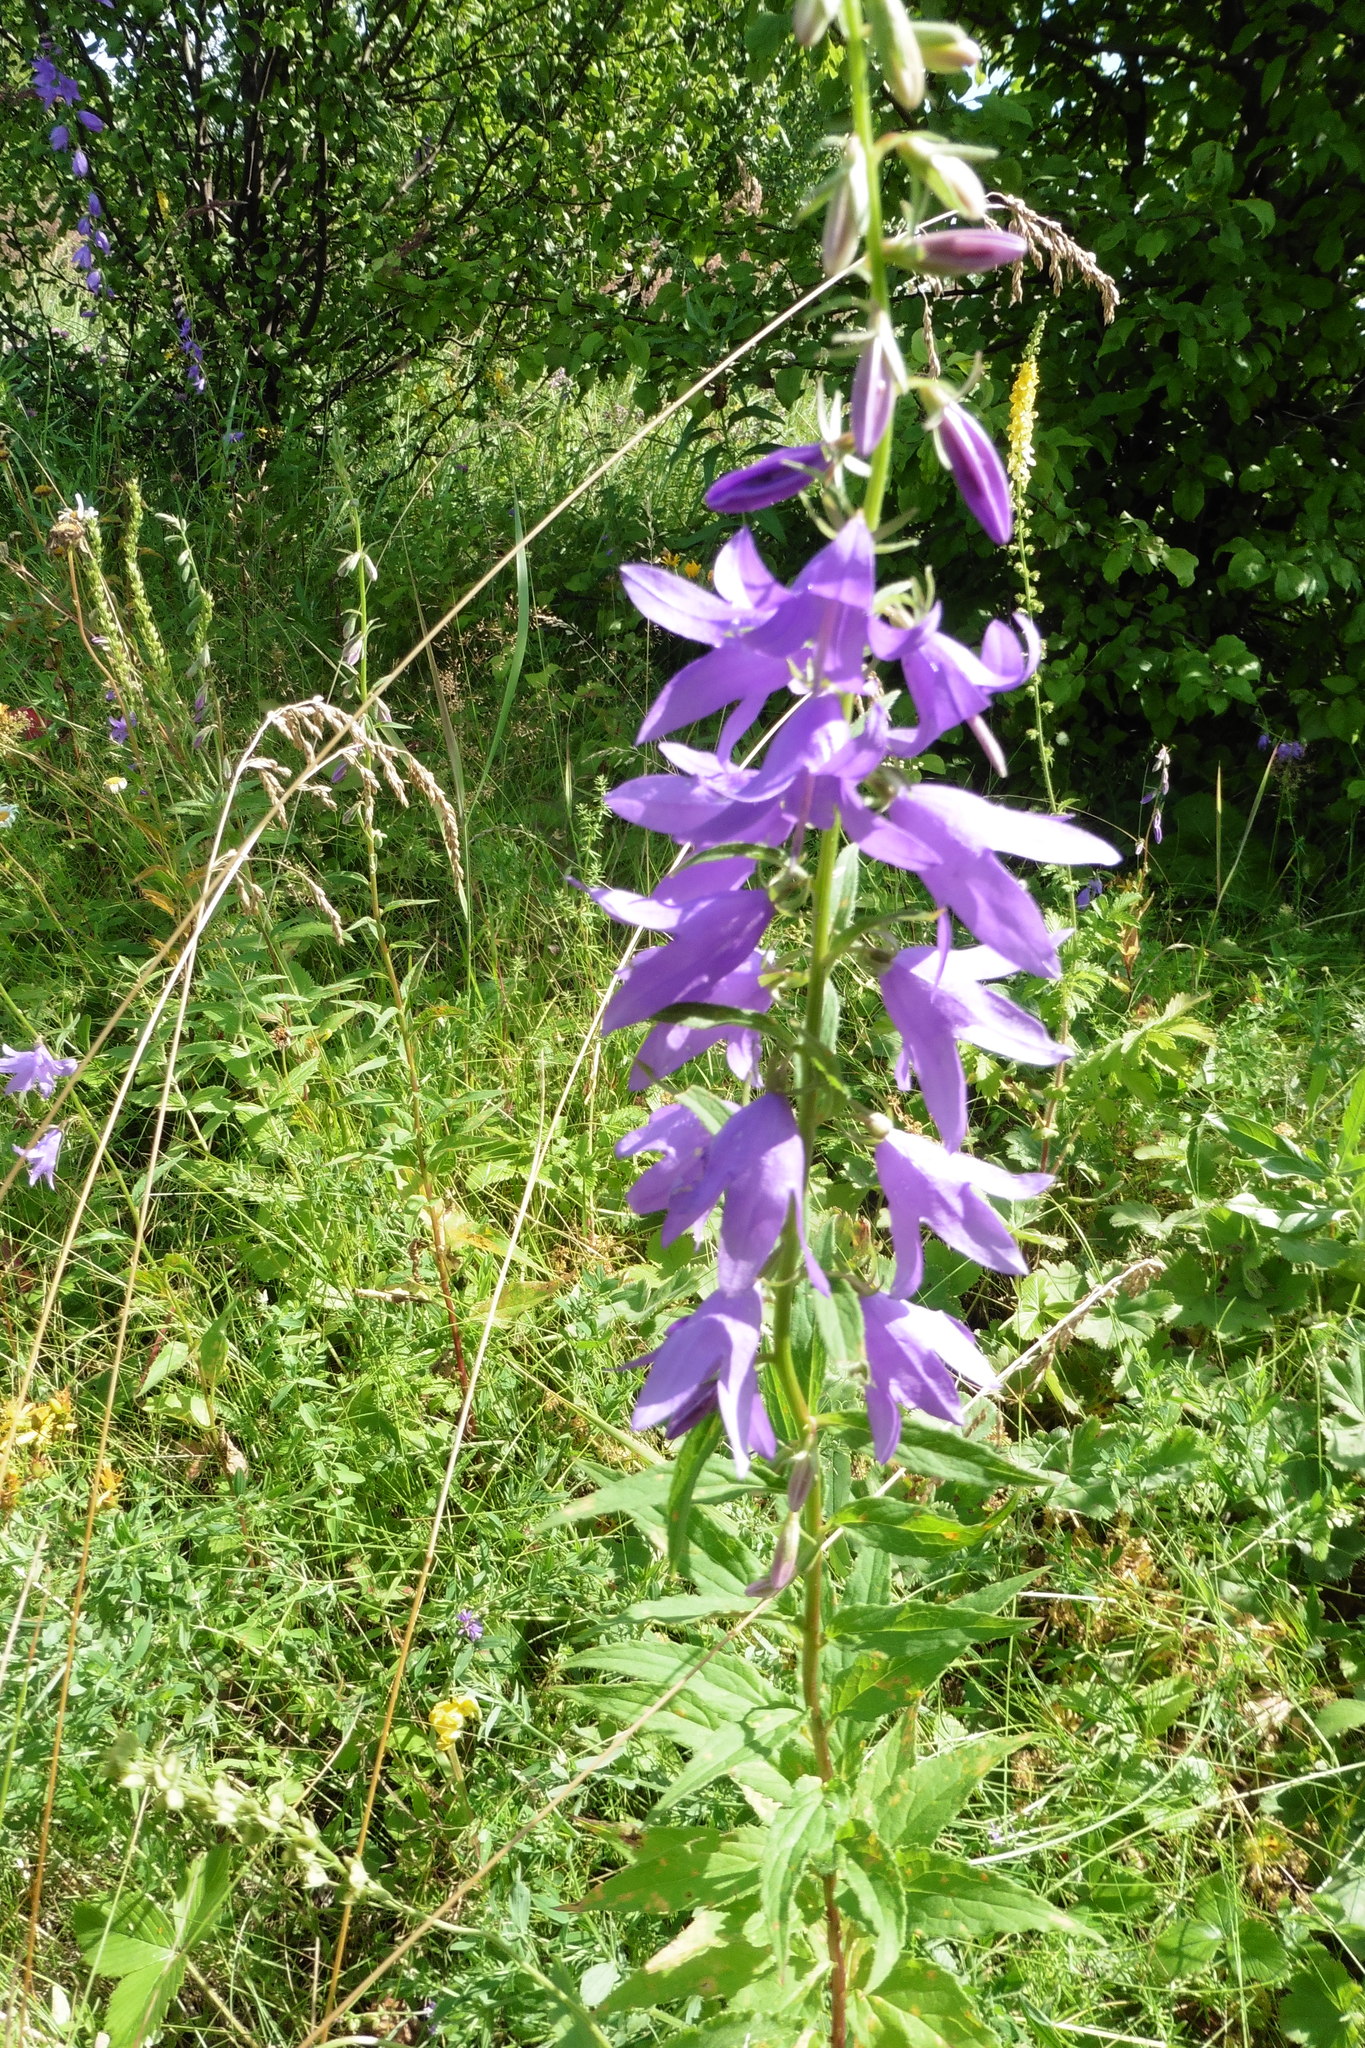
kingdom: Plantae
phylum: Tracheophyta
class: Magnoliopsida
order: Asterales
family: Campanulaceae
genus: Campanula
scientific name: Campanula rapunculoides
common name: Creeping bellflower
